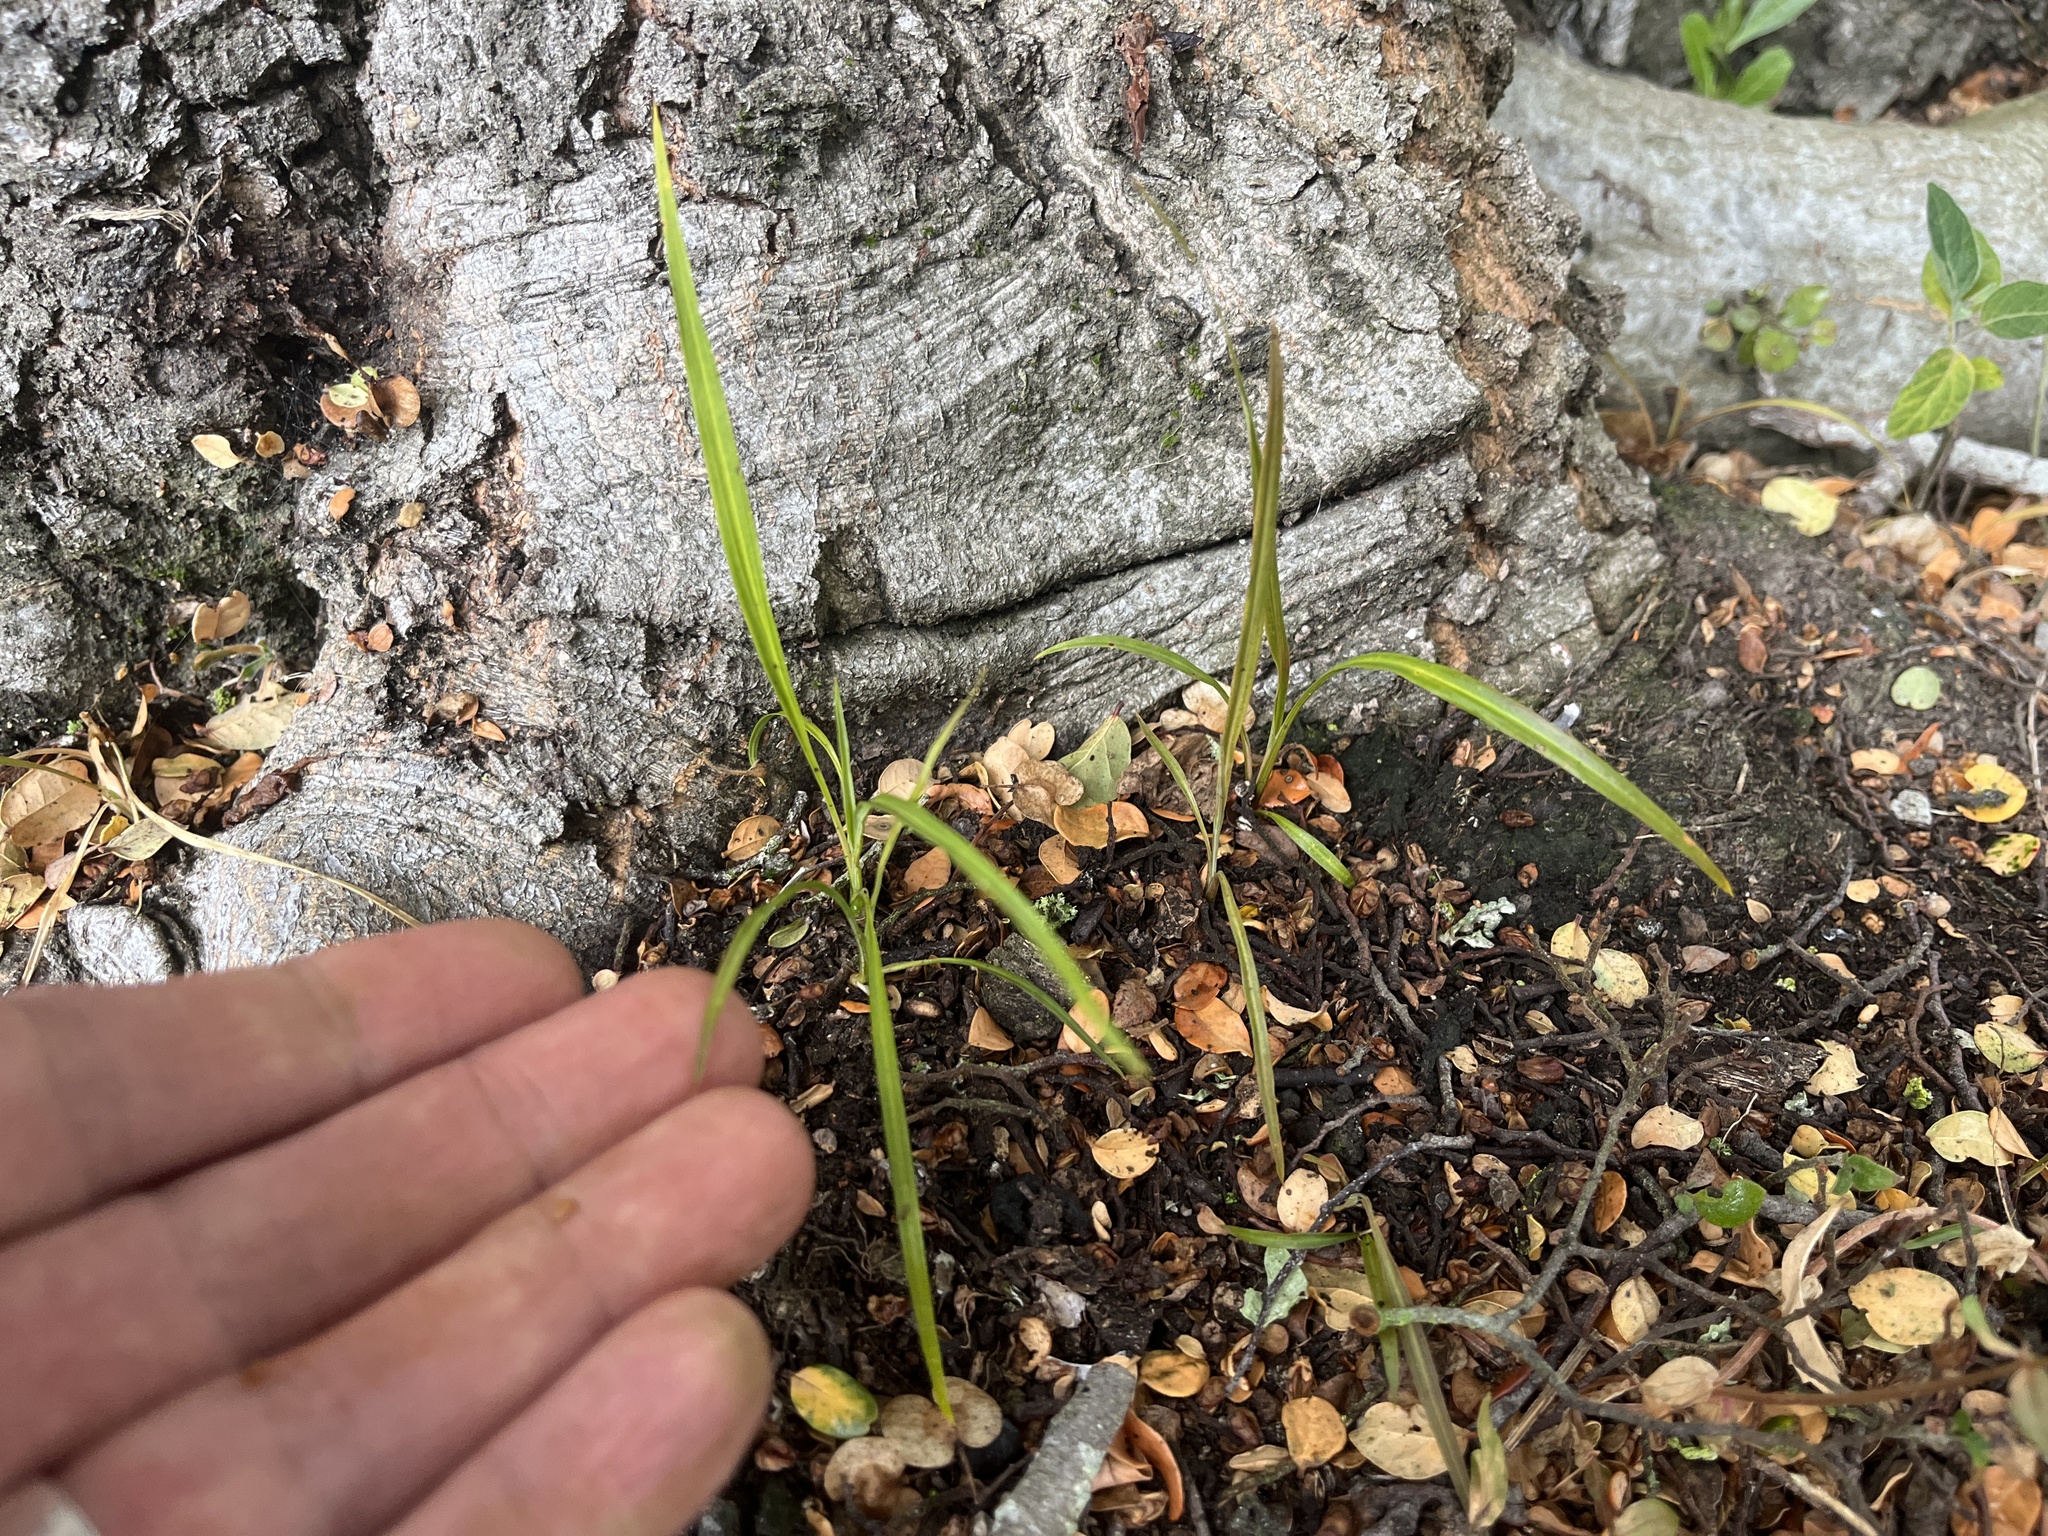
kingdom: Plantae
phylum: Tracheophyta
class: Liliopsida
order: Asparagales
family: Asparagaceae
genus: Cordyline
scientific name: Cordyline australis
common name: Cabbage-palm
